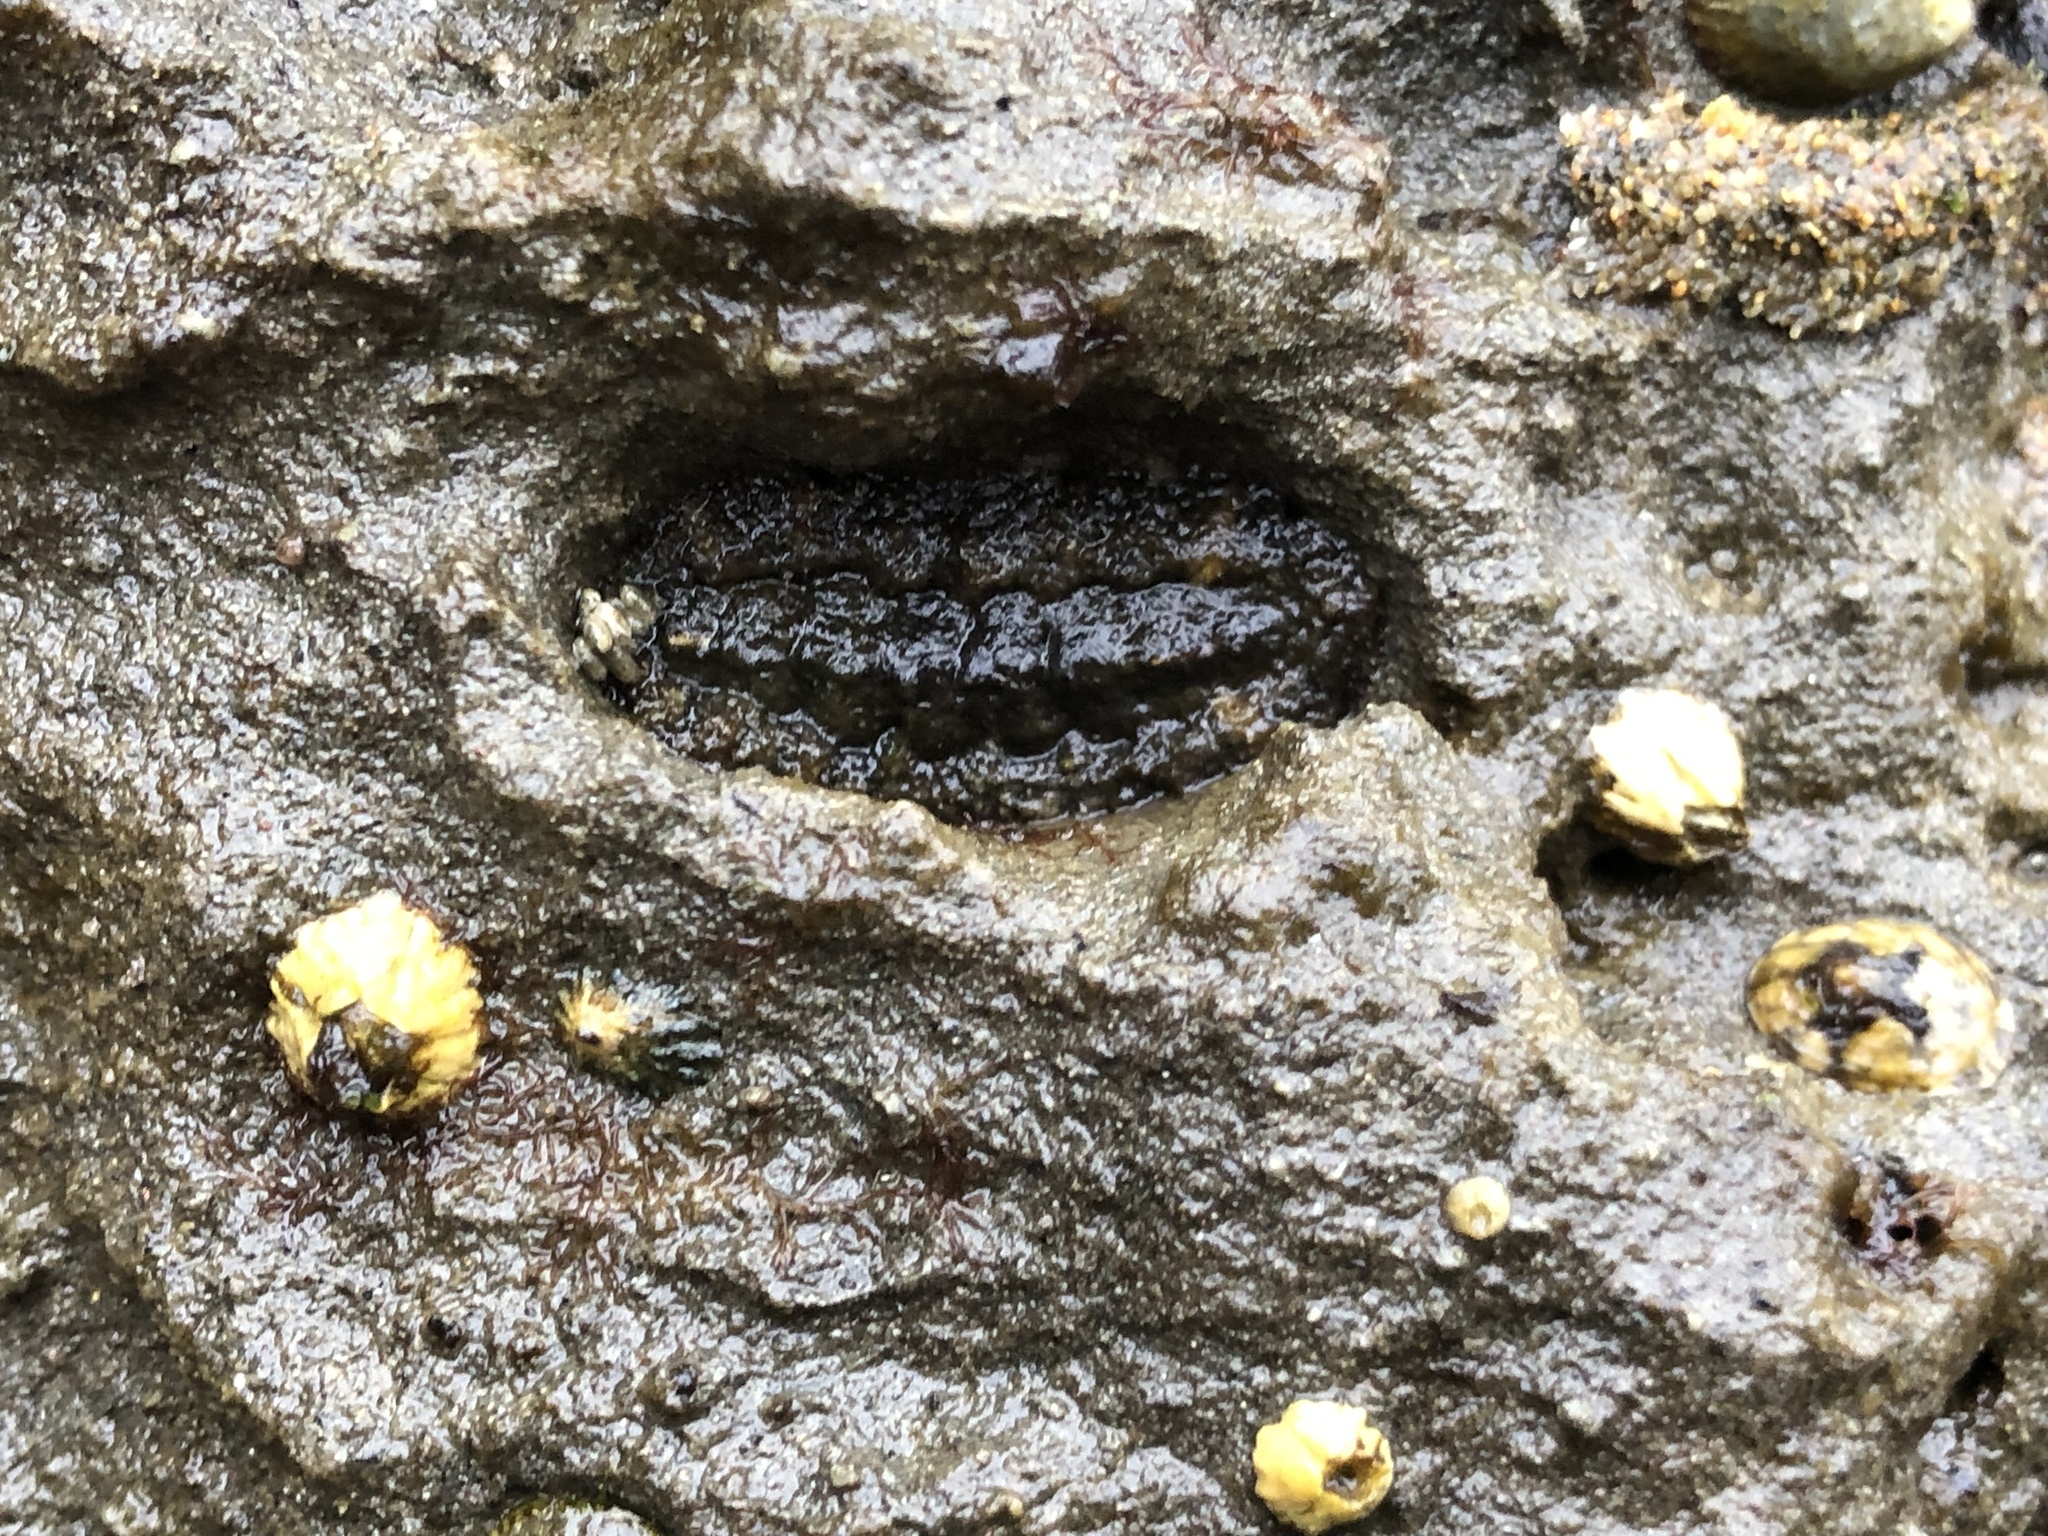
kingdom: Animalia
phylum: Mollusca
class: Polyplacophora
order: Chitonida
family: Tonicellidae
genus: Nuttallina
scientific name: Nuttallina californica
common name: California nuttall chiton
